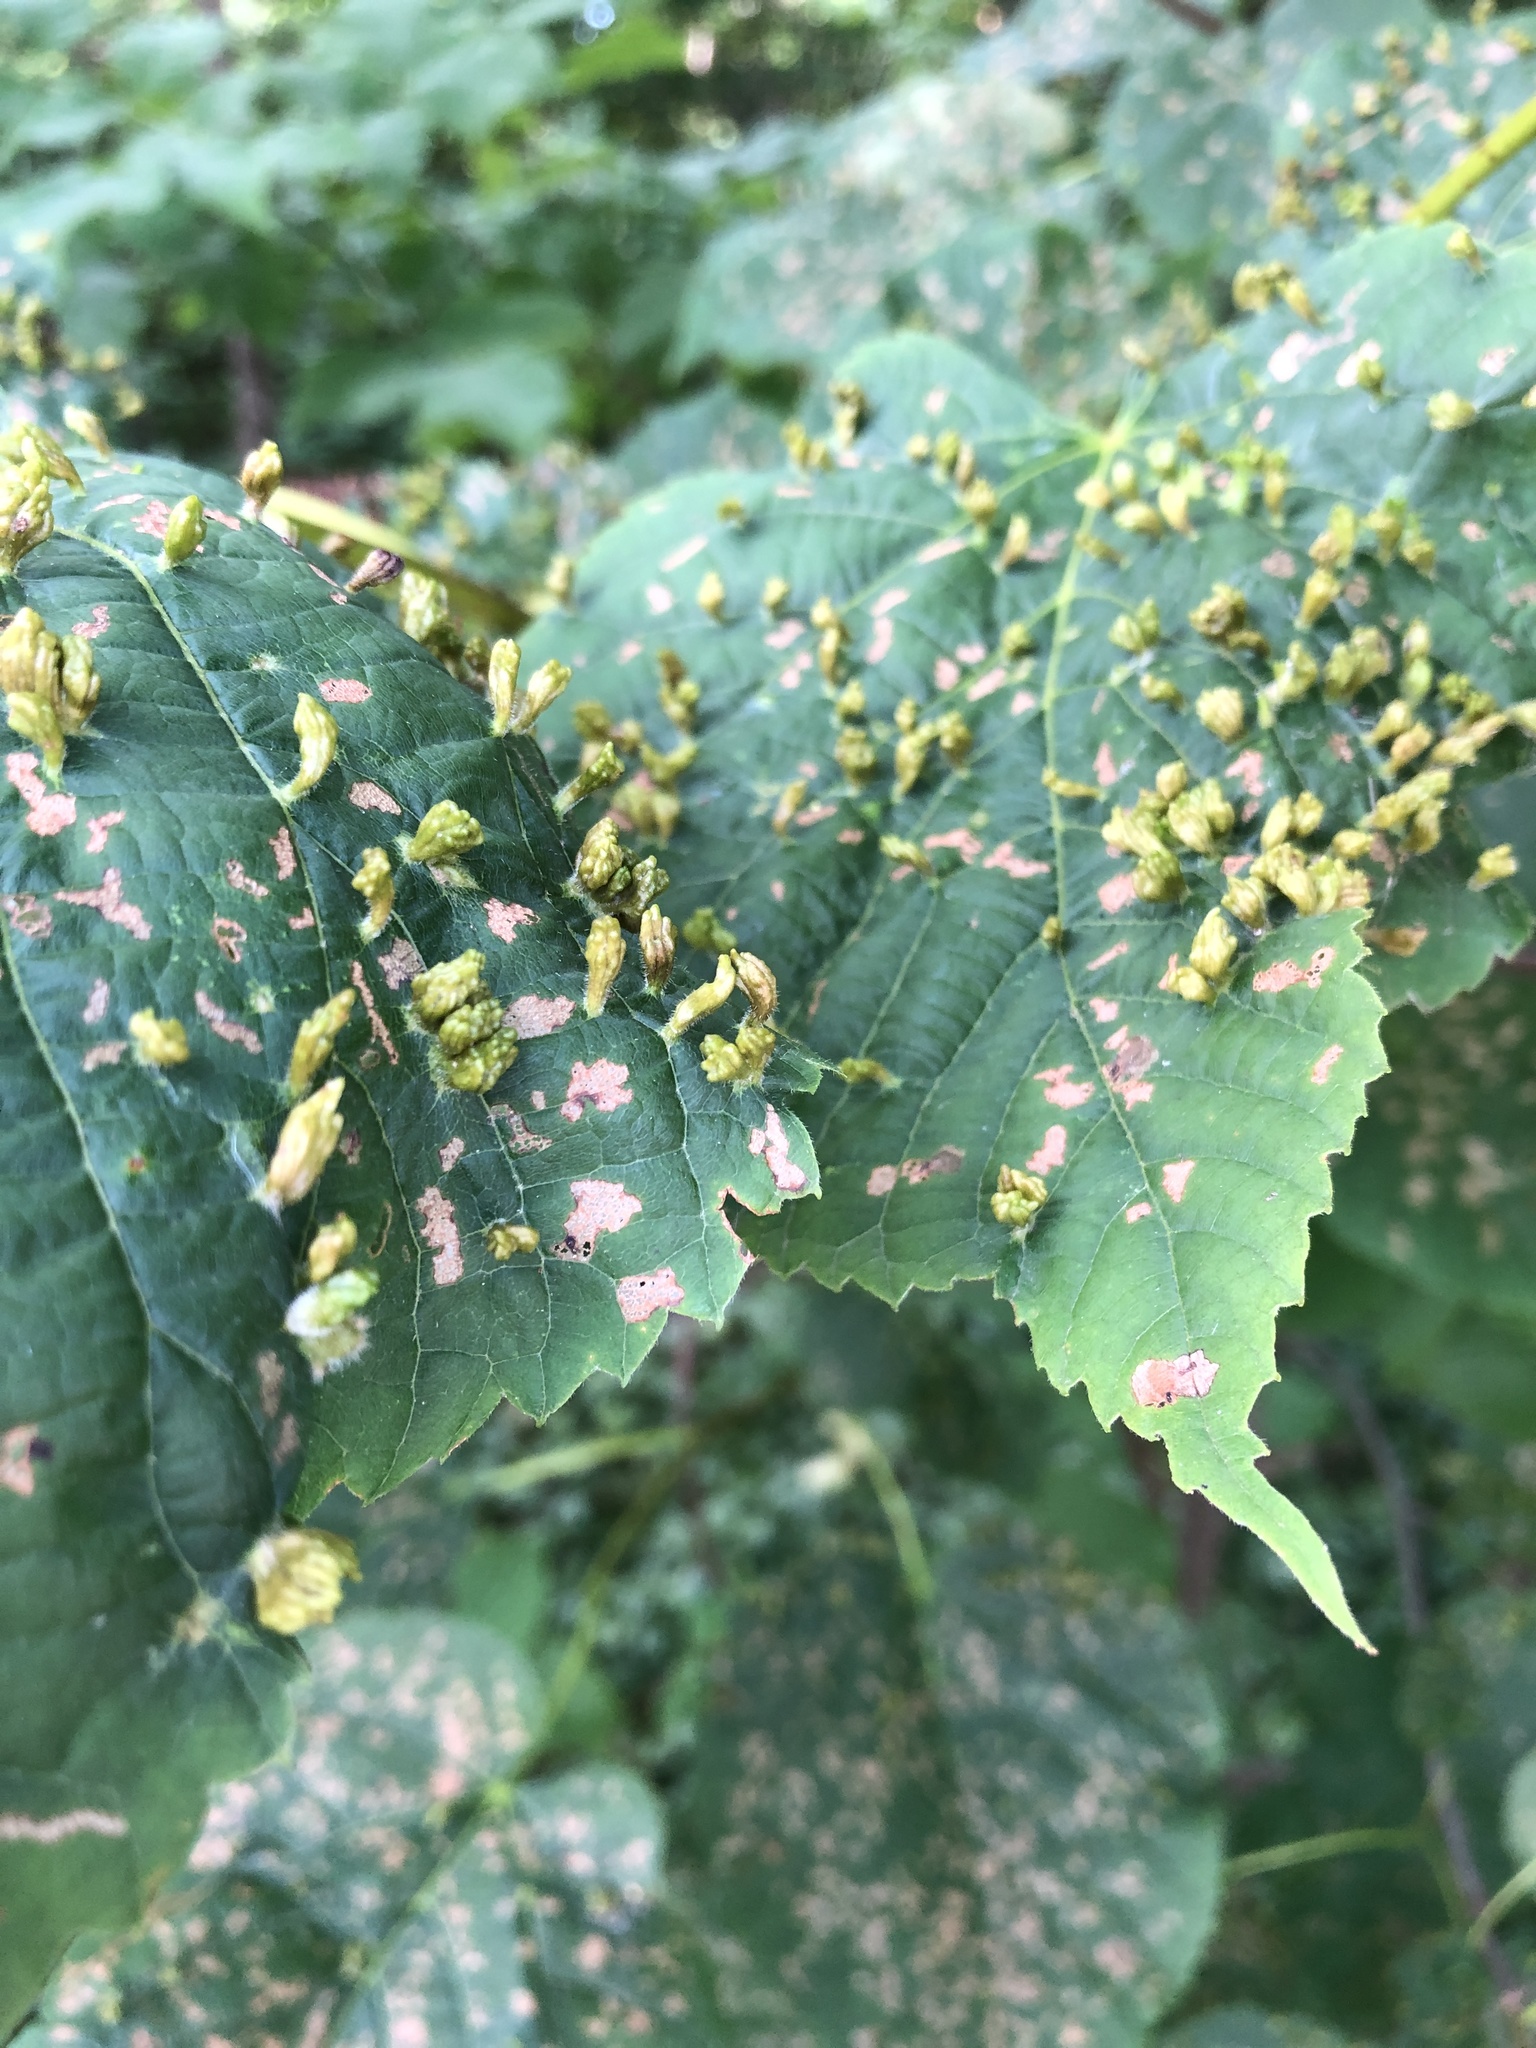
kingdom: Animalia
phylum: Arthropoda
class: Arachnida
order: Trombidiformes
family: Eriophyidae
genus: Eriophyes
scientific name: Eriophyes tiliae
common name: Red nail gall mite
